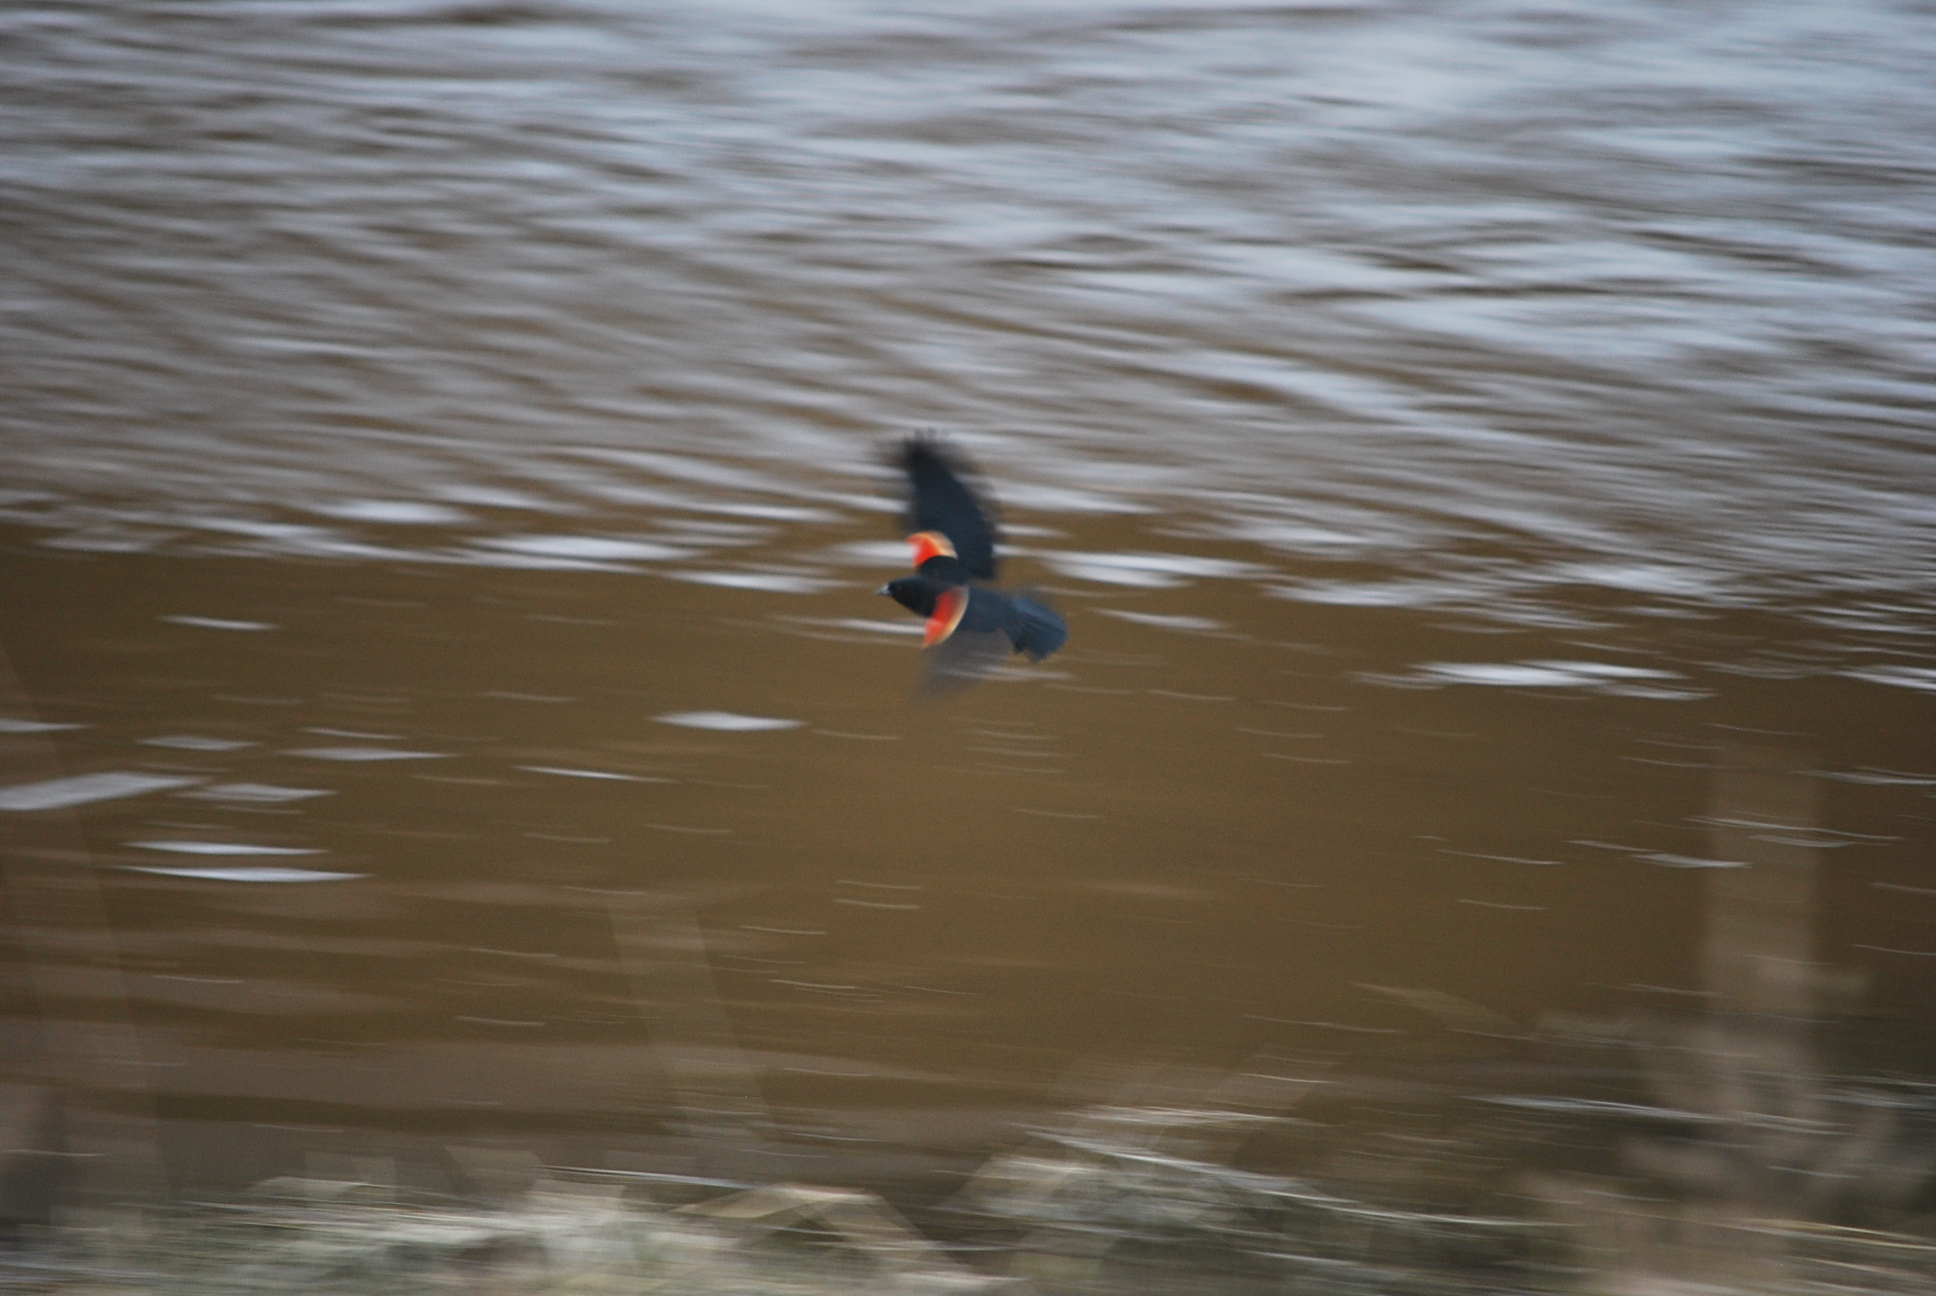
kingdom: Animalia
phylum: Chordata
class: Aves
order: Passeriformes
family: Icteridae
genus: Agelaius
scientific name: Agelaius phoeniceus
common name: Red-winged blackbird
